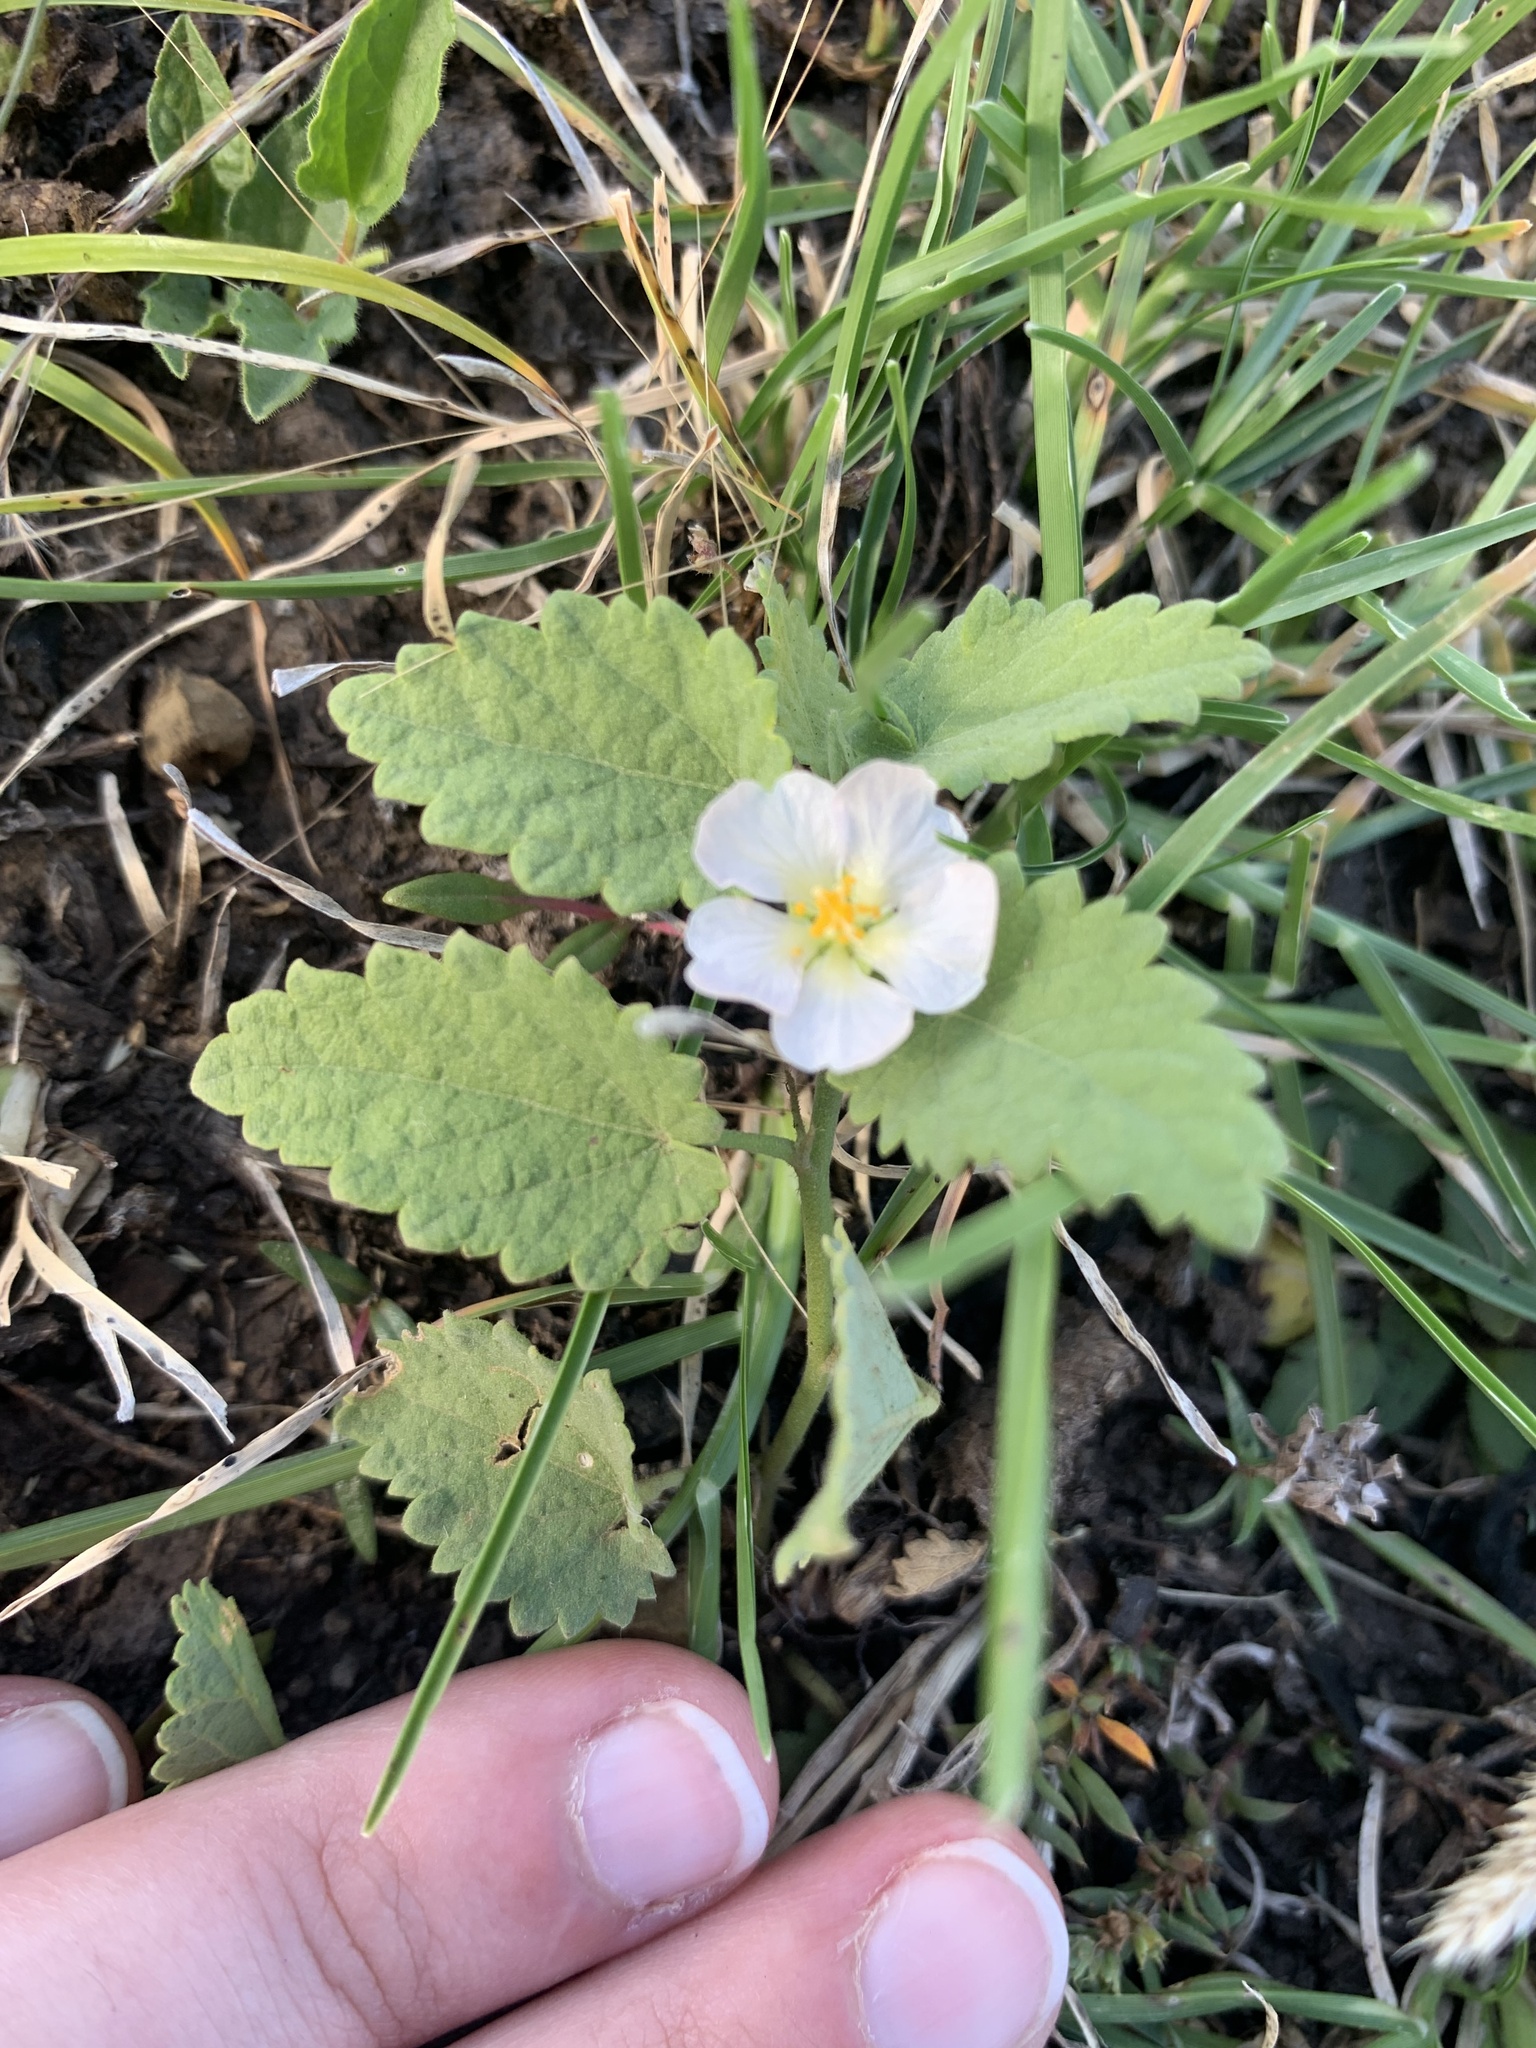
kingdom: Plantae
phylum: Tracheophyta
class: Magnoliopsida
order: Malvales
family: Malvaceae
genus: Krapovickasia
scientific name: Krapovickasia flavescens
